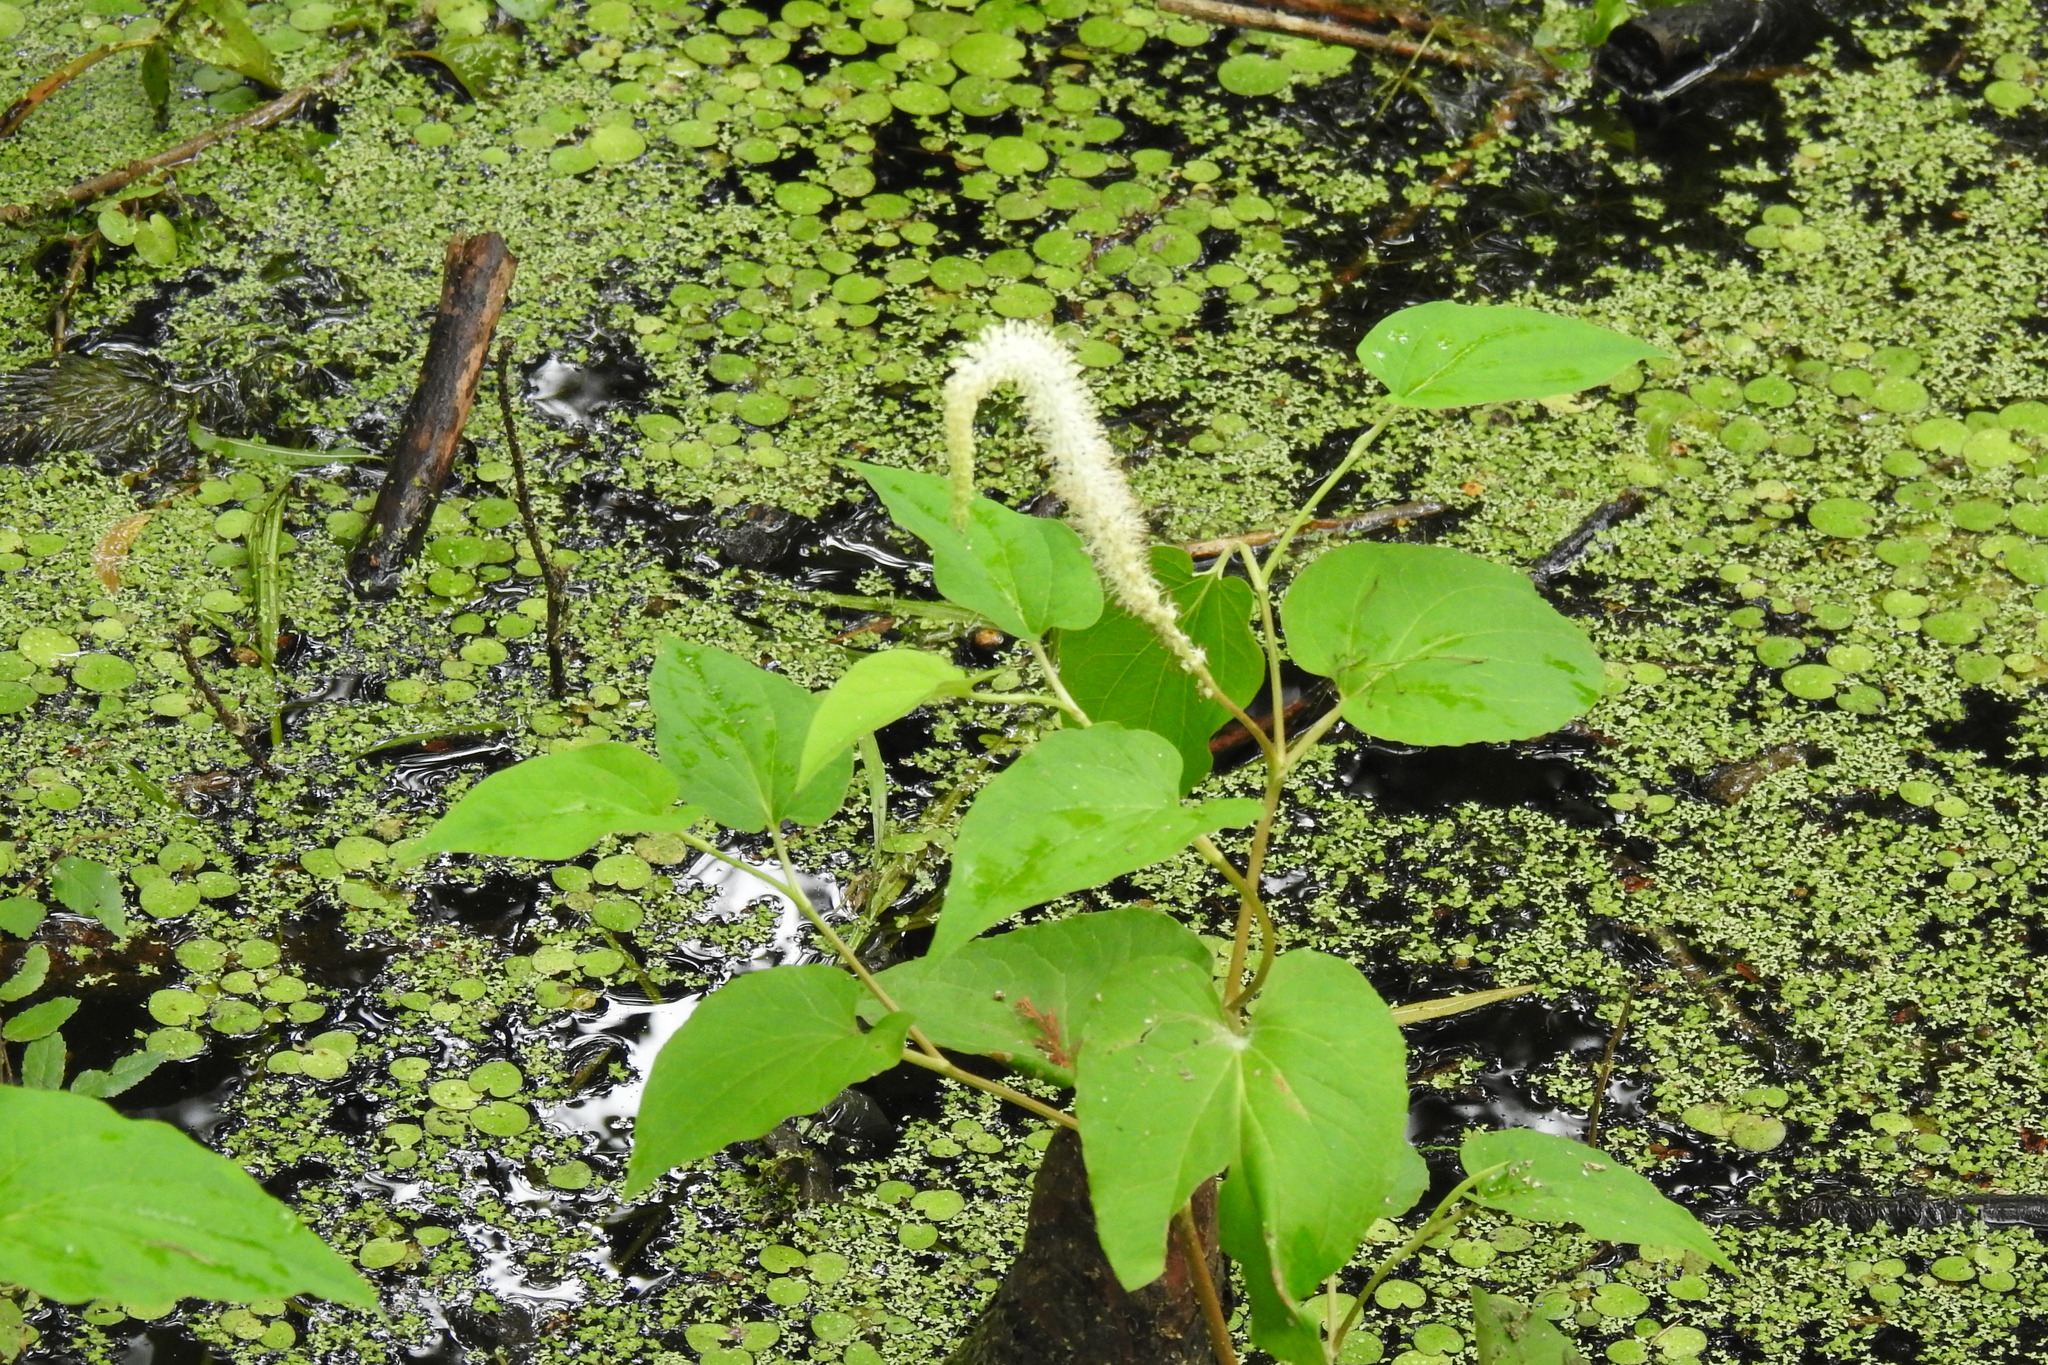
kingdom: Plantae
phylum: Tracheophyta
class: Magnoliopsida
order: Piperales
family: Saururaceae
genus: Saururus
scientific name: Saururus cernuus
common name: Lizard's-tail
